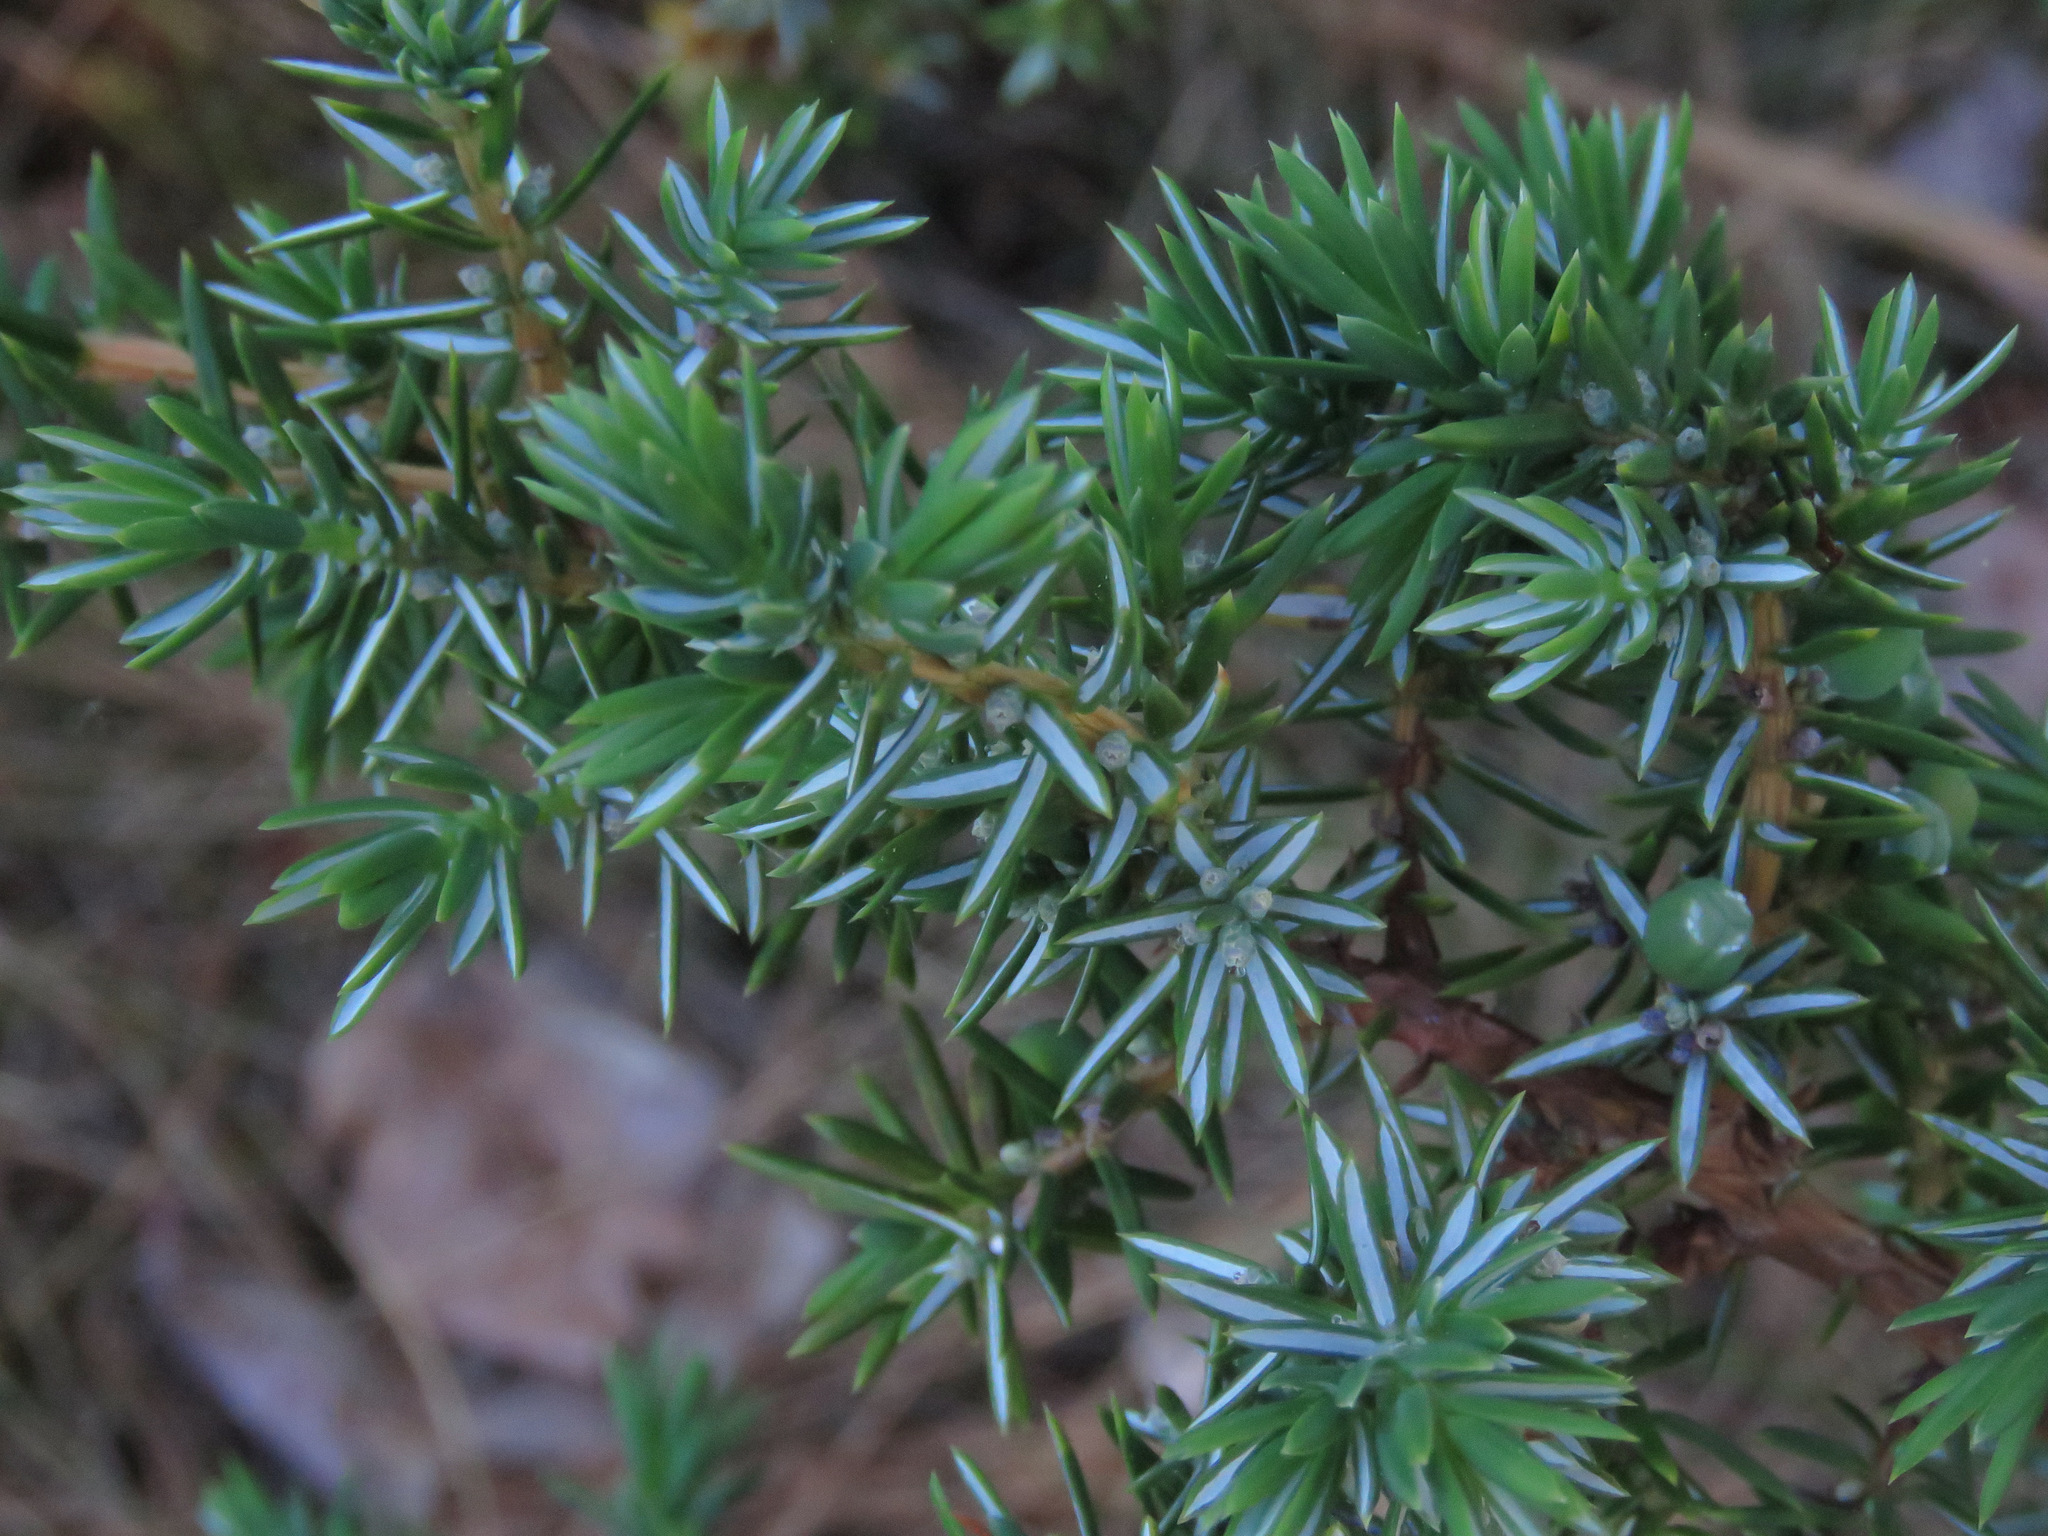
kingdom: Plantae
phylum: Tracheophyta
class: Pinopsida
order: Pinales
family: Cupressaceae
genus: Juniperus
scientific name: Juniperus communis
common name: Common juniper
